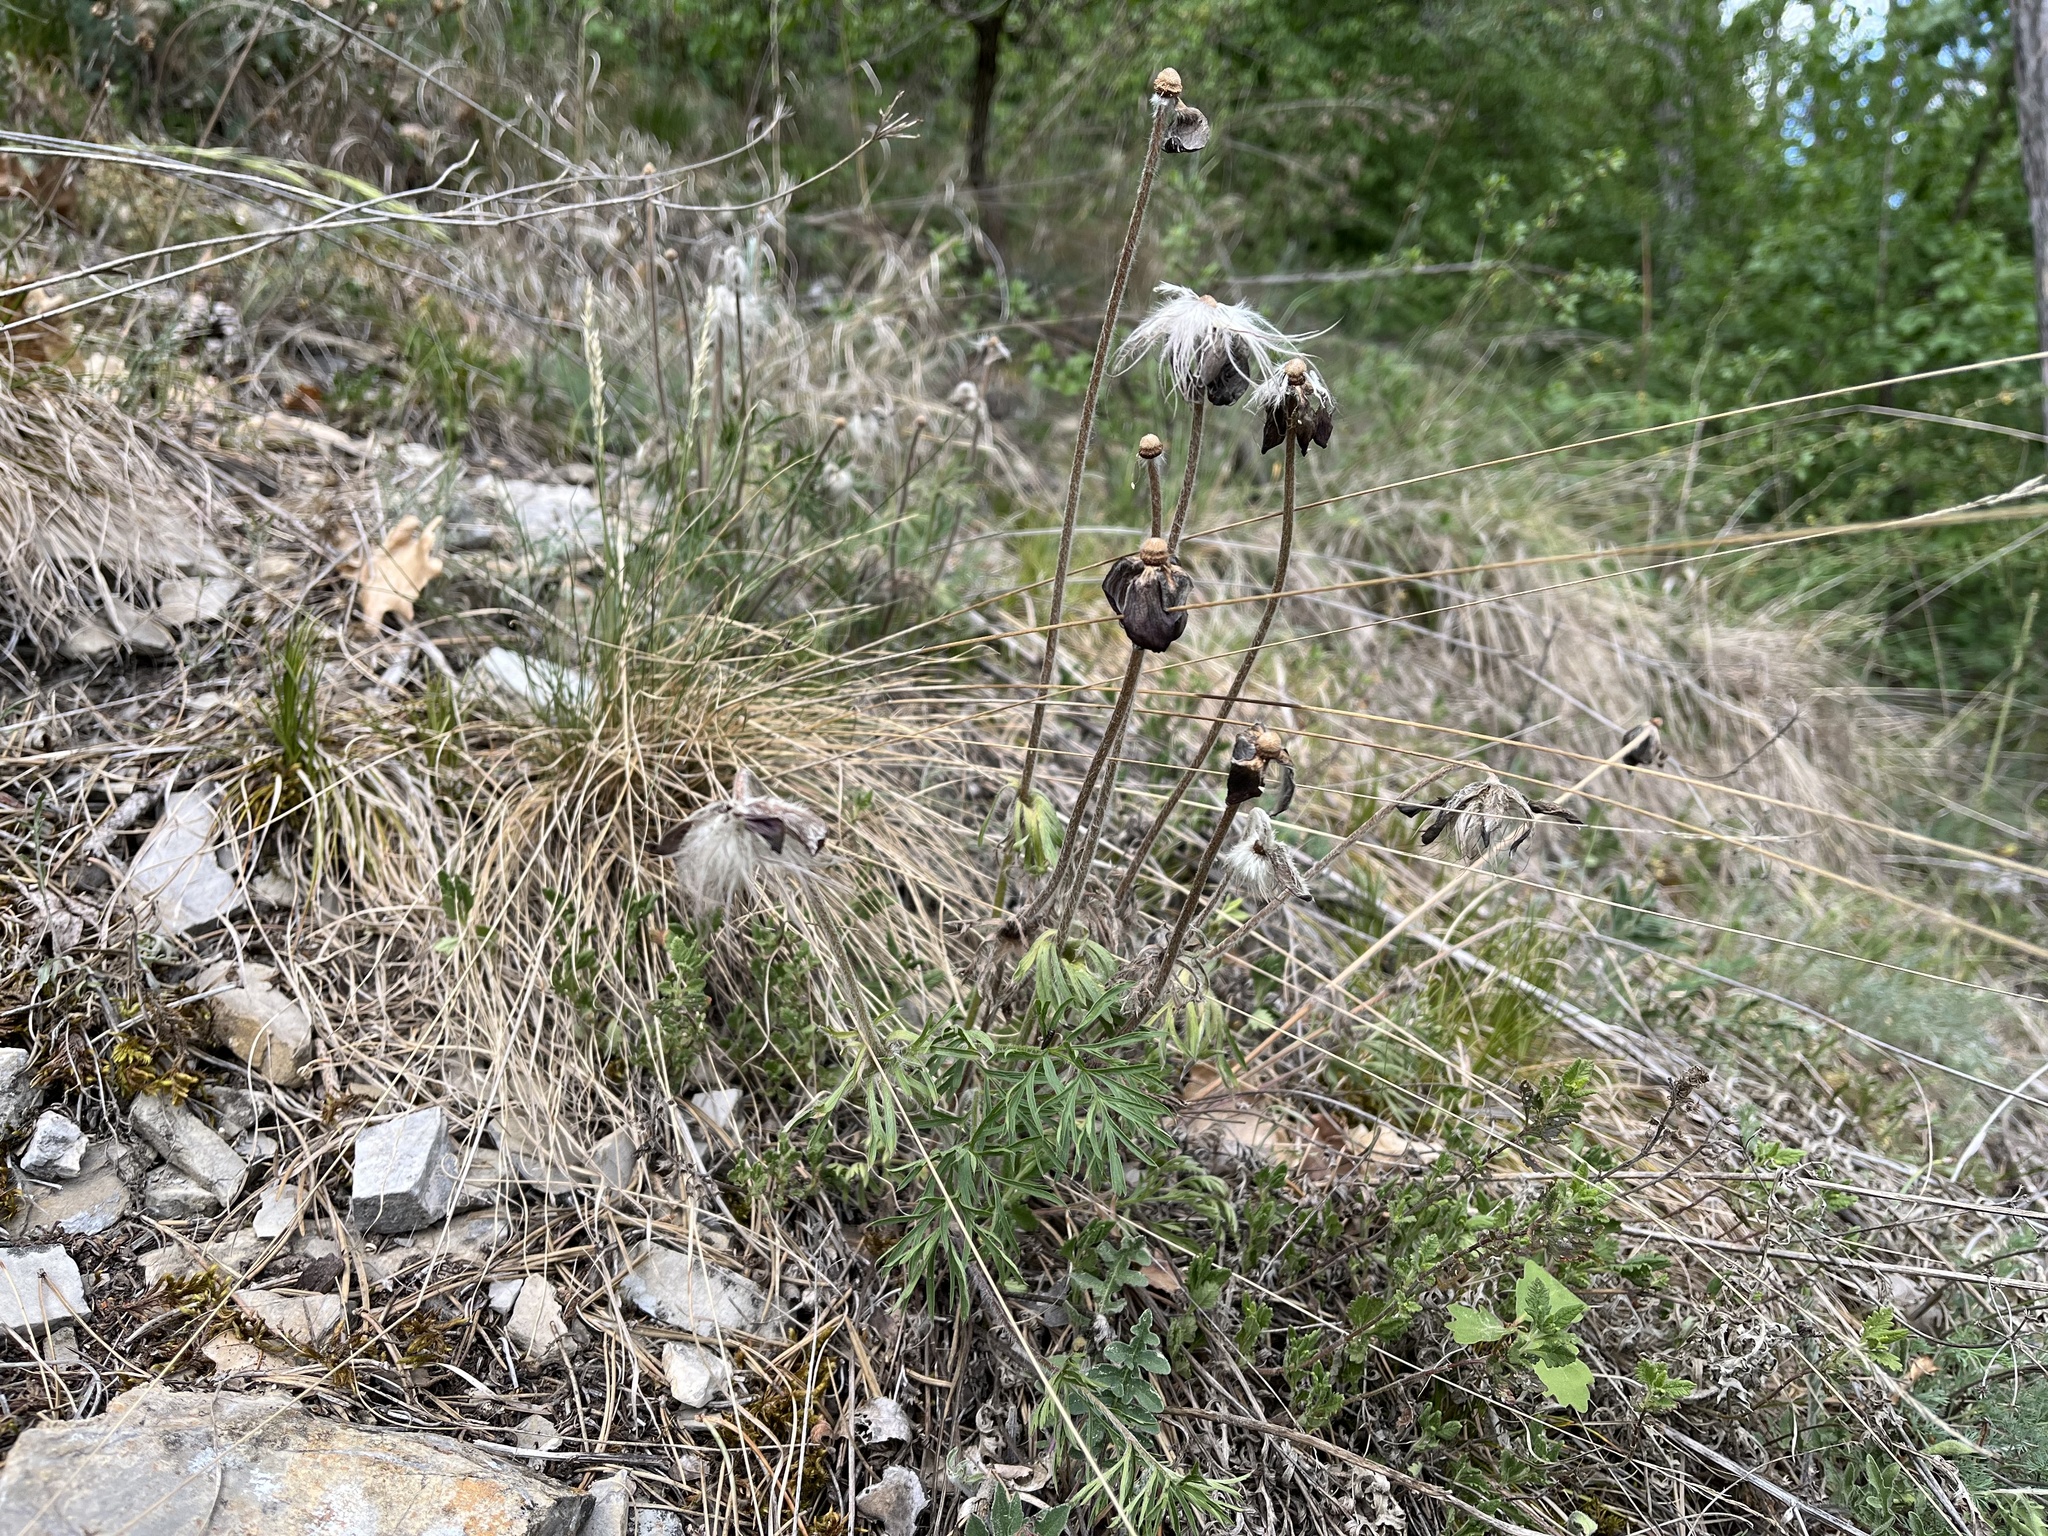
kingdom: Plantae
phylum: Tracheophyta
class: Magnoliopsida
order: Ranunculales
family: Ranunculaceae
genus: Pulsatilla
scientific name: Pulsatilla pratensis
